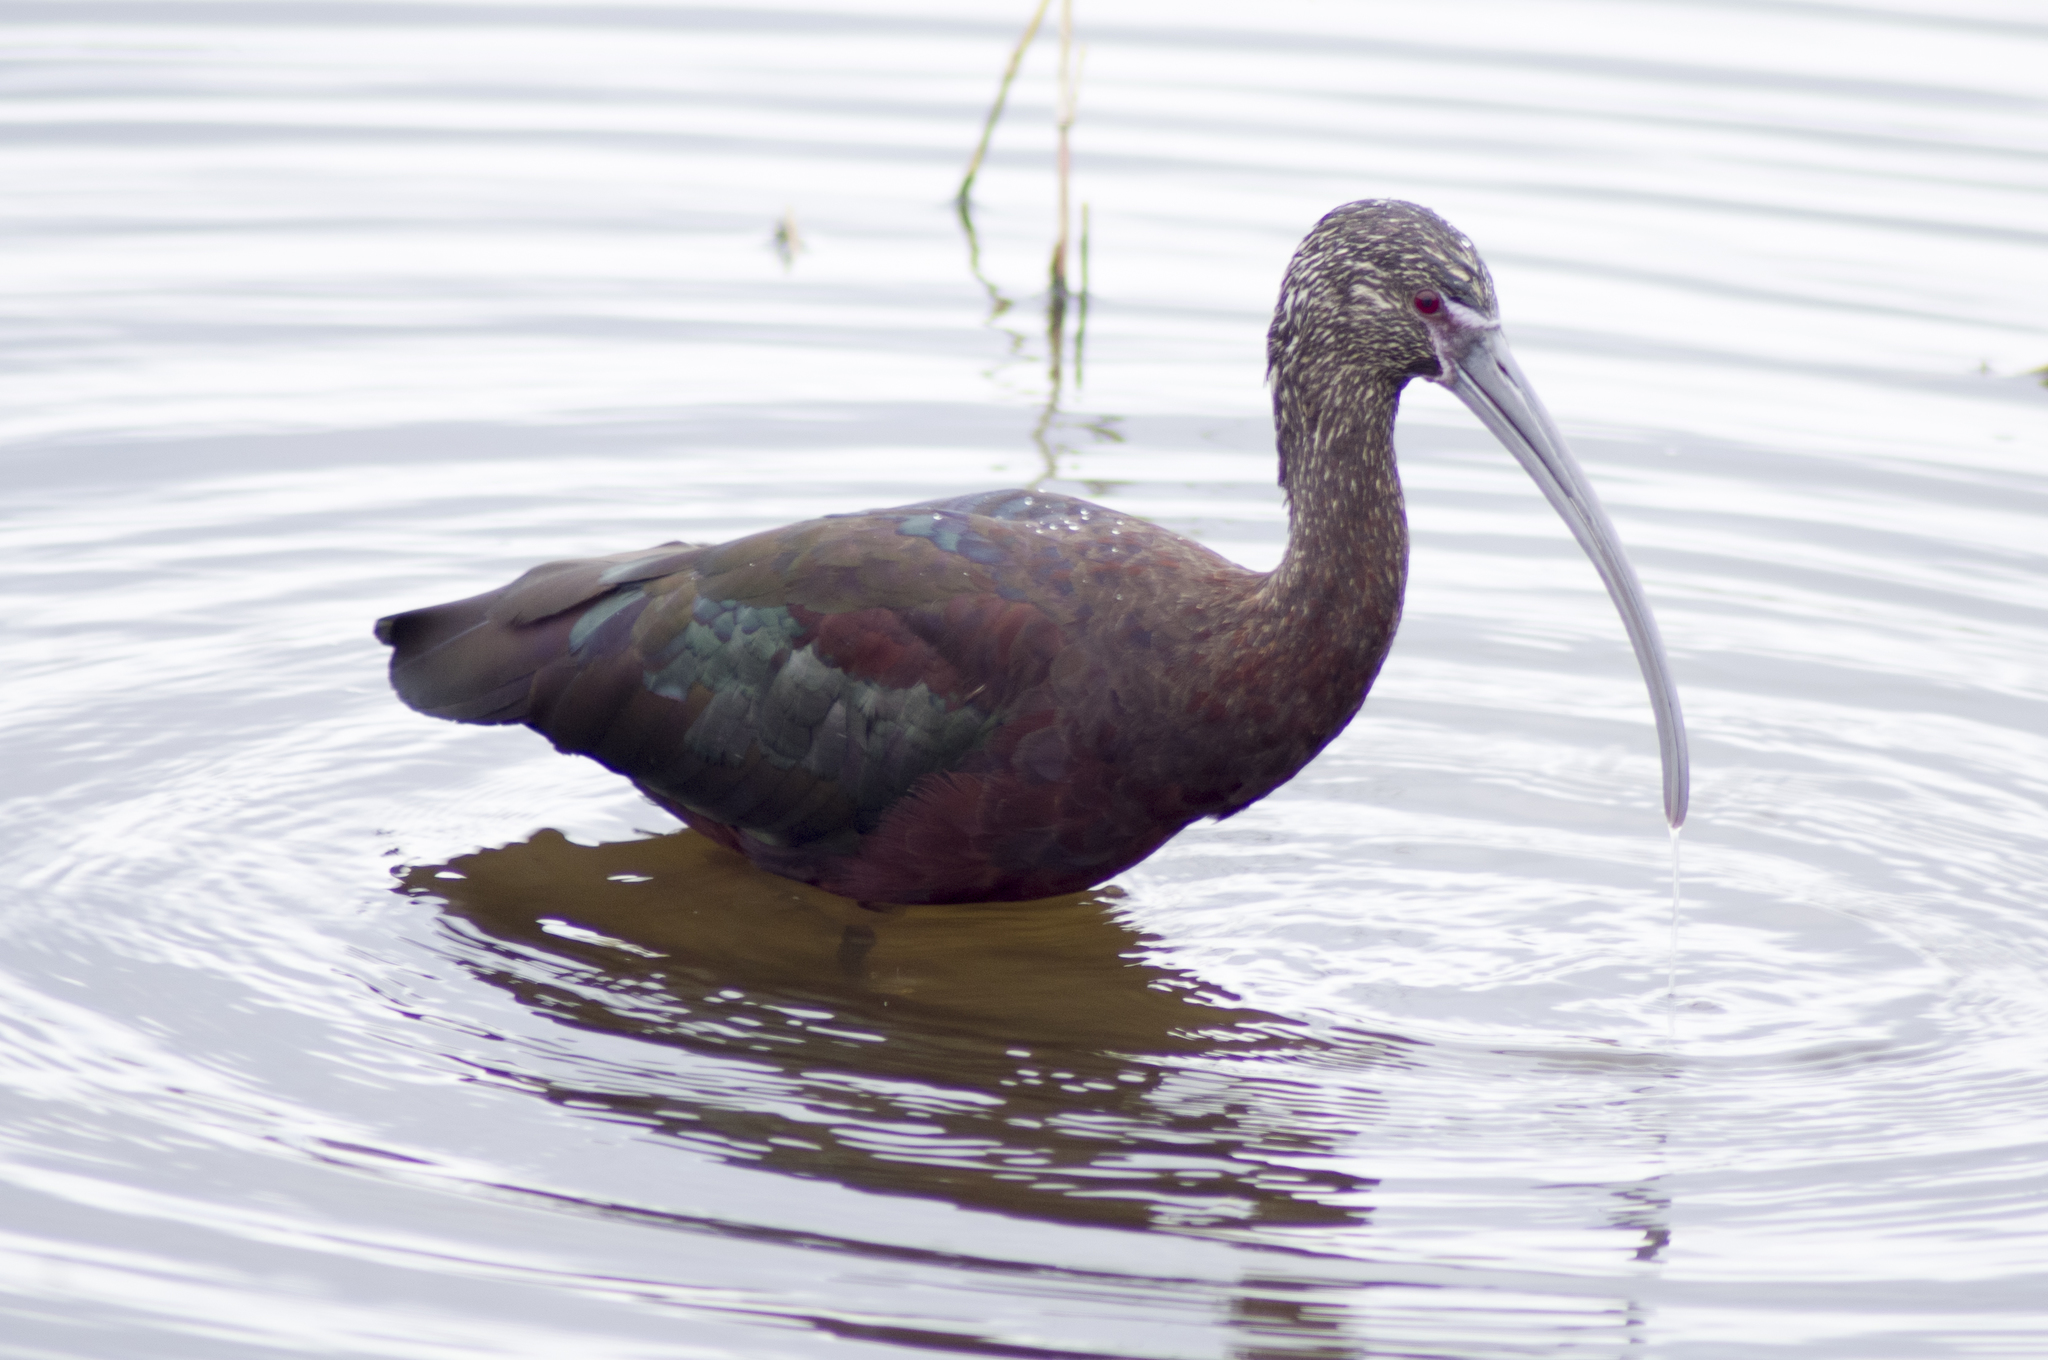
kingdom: Animalia
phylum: Chordata
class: Aves
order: Pelecaniformes
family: Threskiornithidae
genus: Plegadis
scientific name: Plegadis chihi
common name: White-faced ibis
